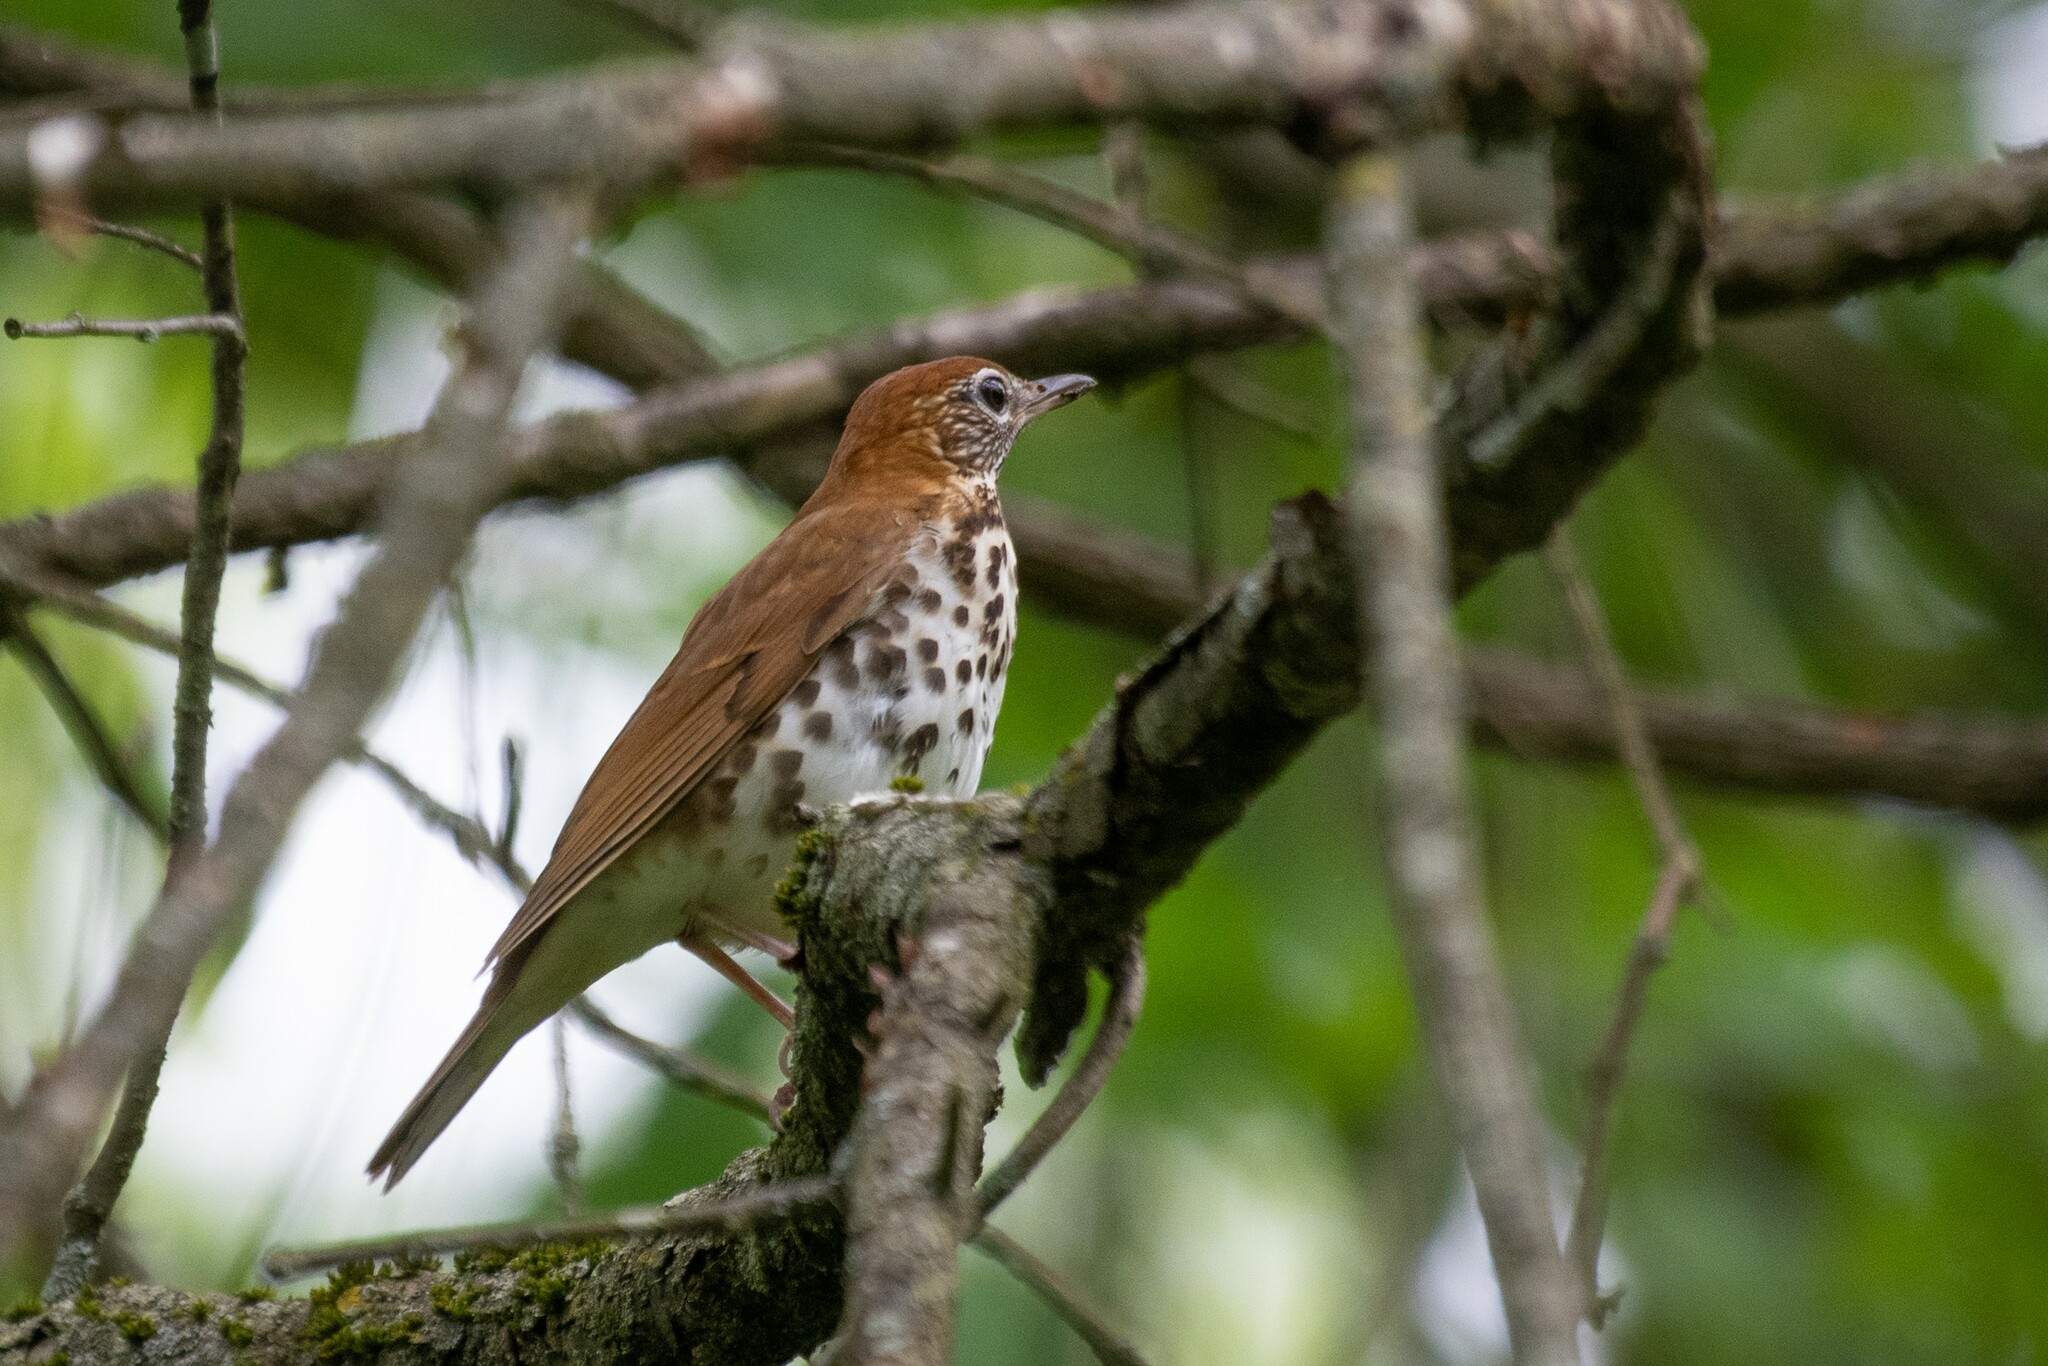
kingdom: Animalia
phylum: Chordata
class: Aves
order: Passeriformes
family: Turdidae
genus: Hylocichla
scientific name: Hylocichla mustelina
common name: Wood thrush
